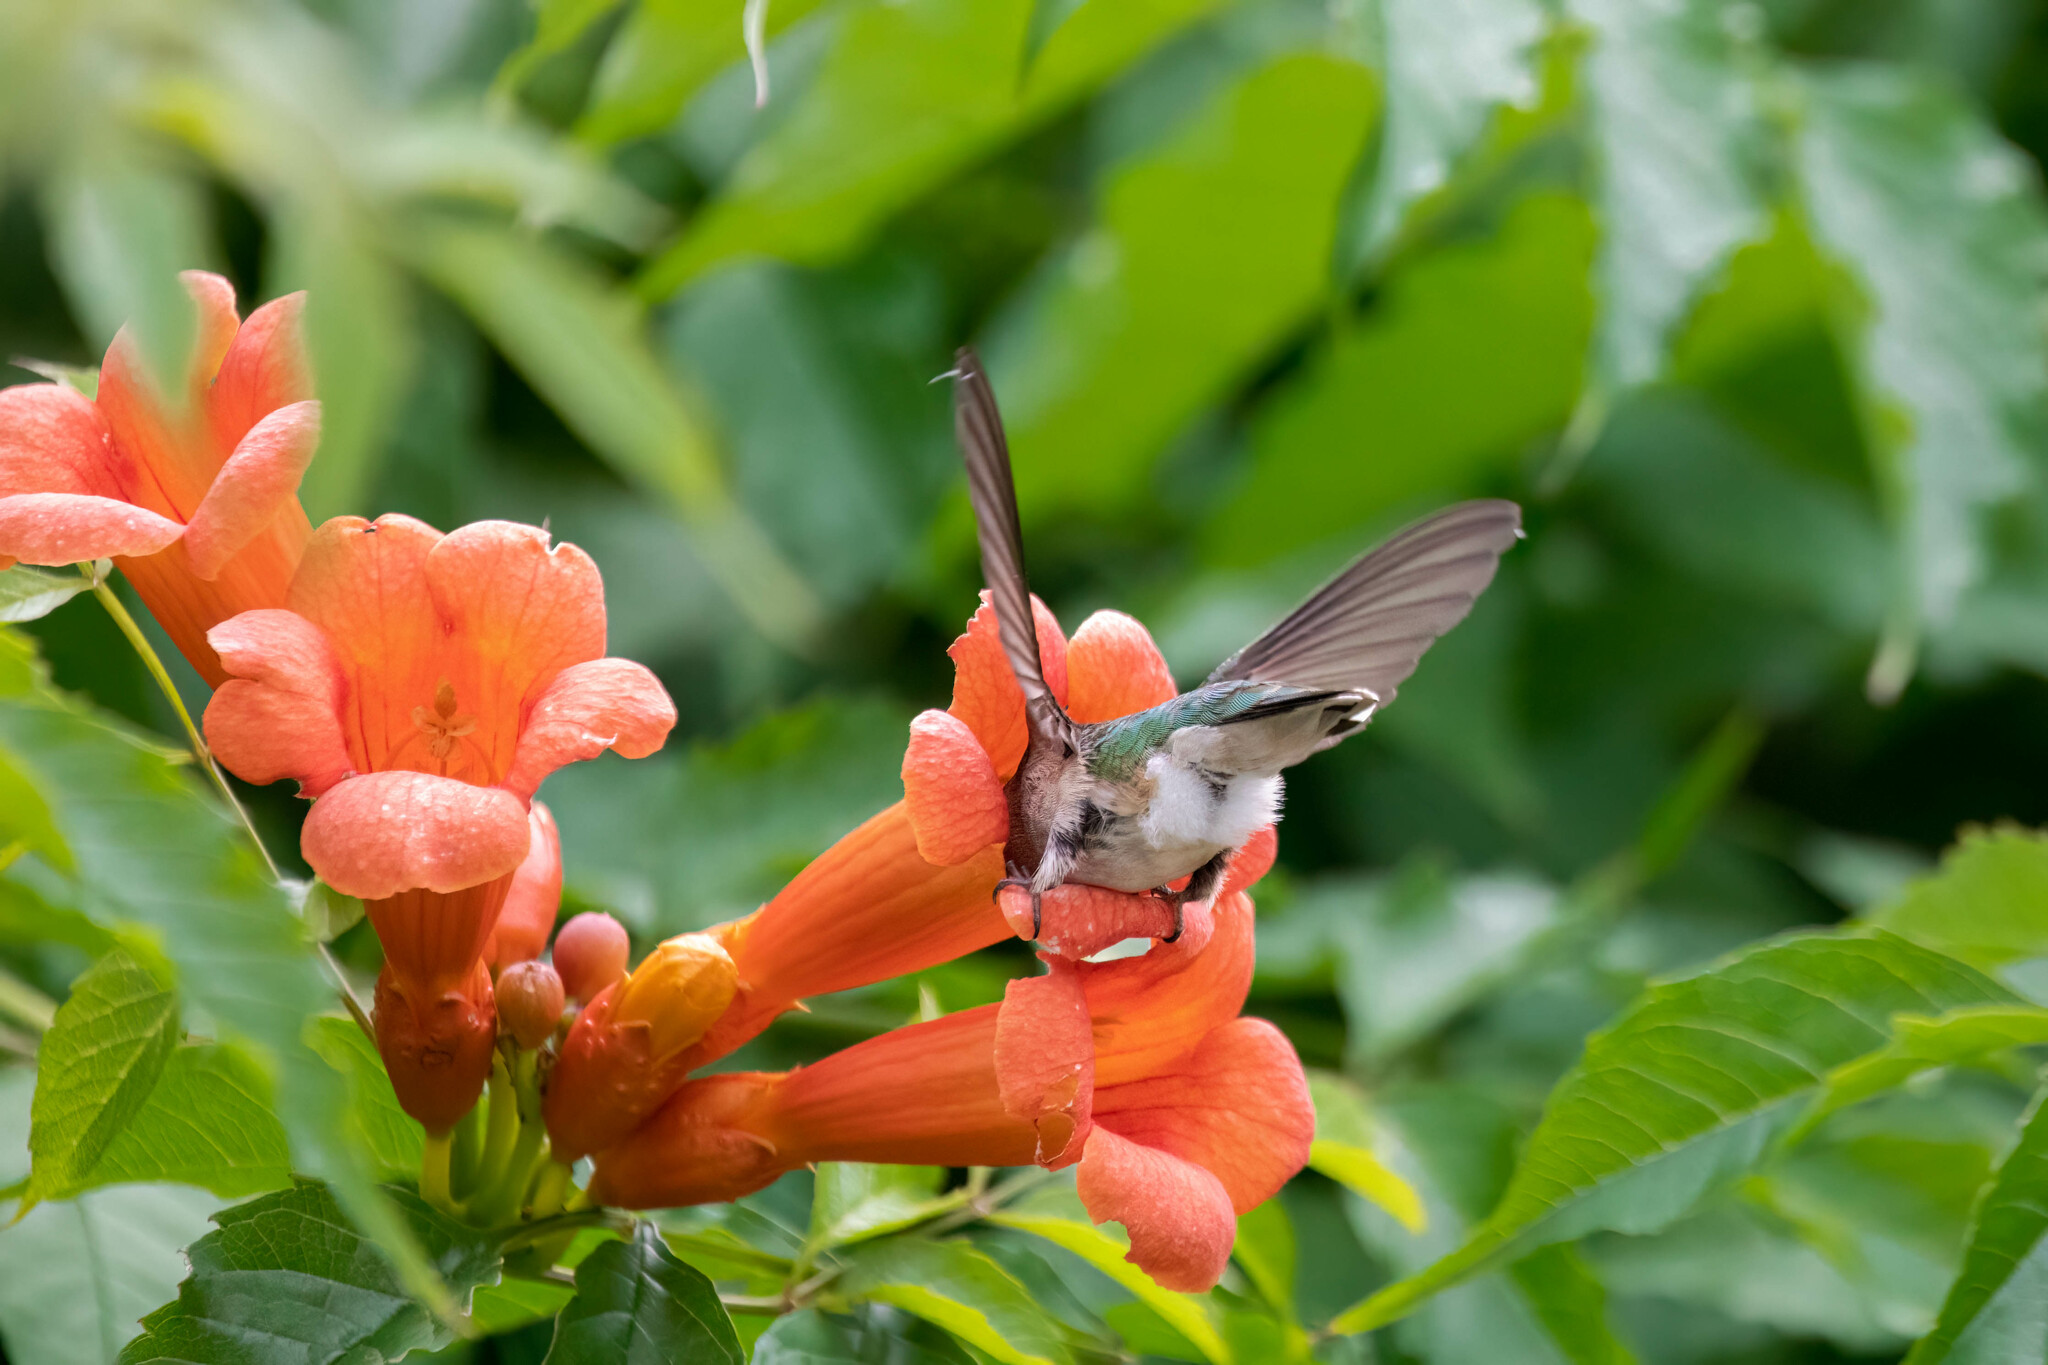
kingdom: Animalia
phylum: Chordata
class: Aves
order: Apodiformes
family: Trochilidae
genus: Archilochus
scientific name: Archilochus colubris
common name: Ruby-throated hummingbird
